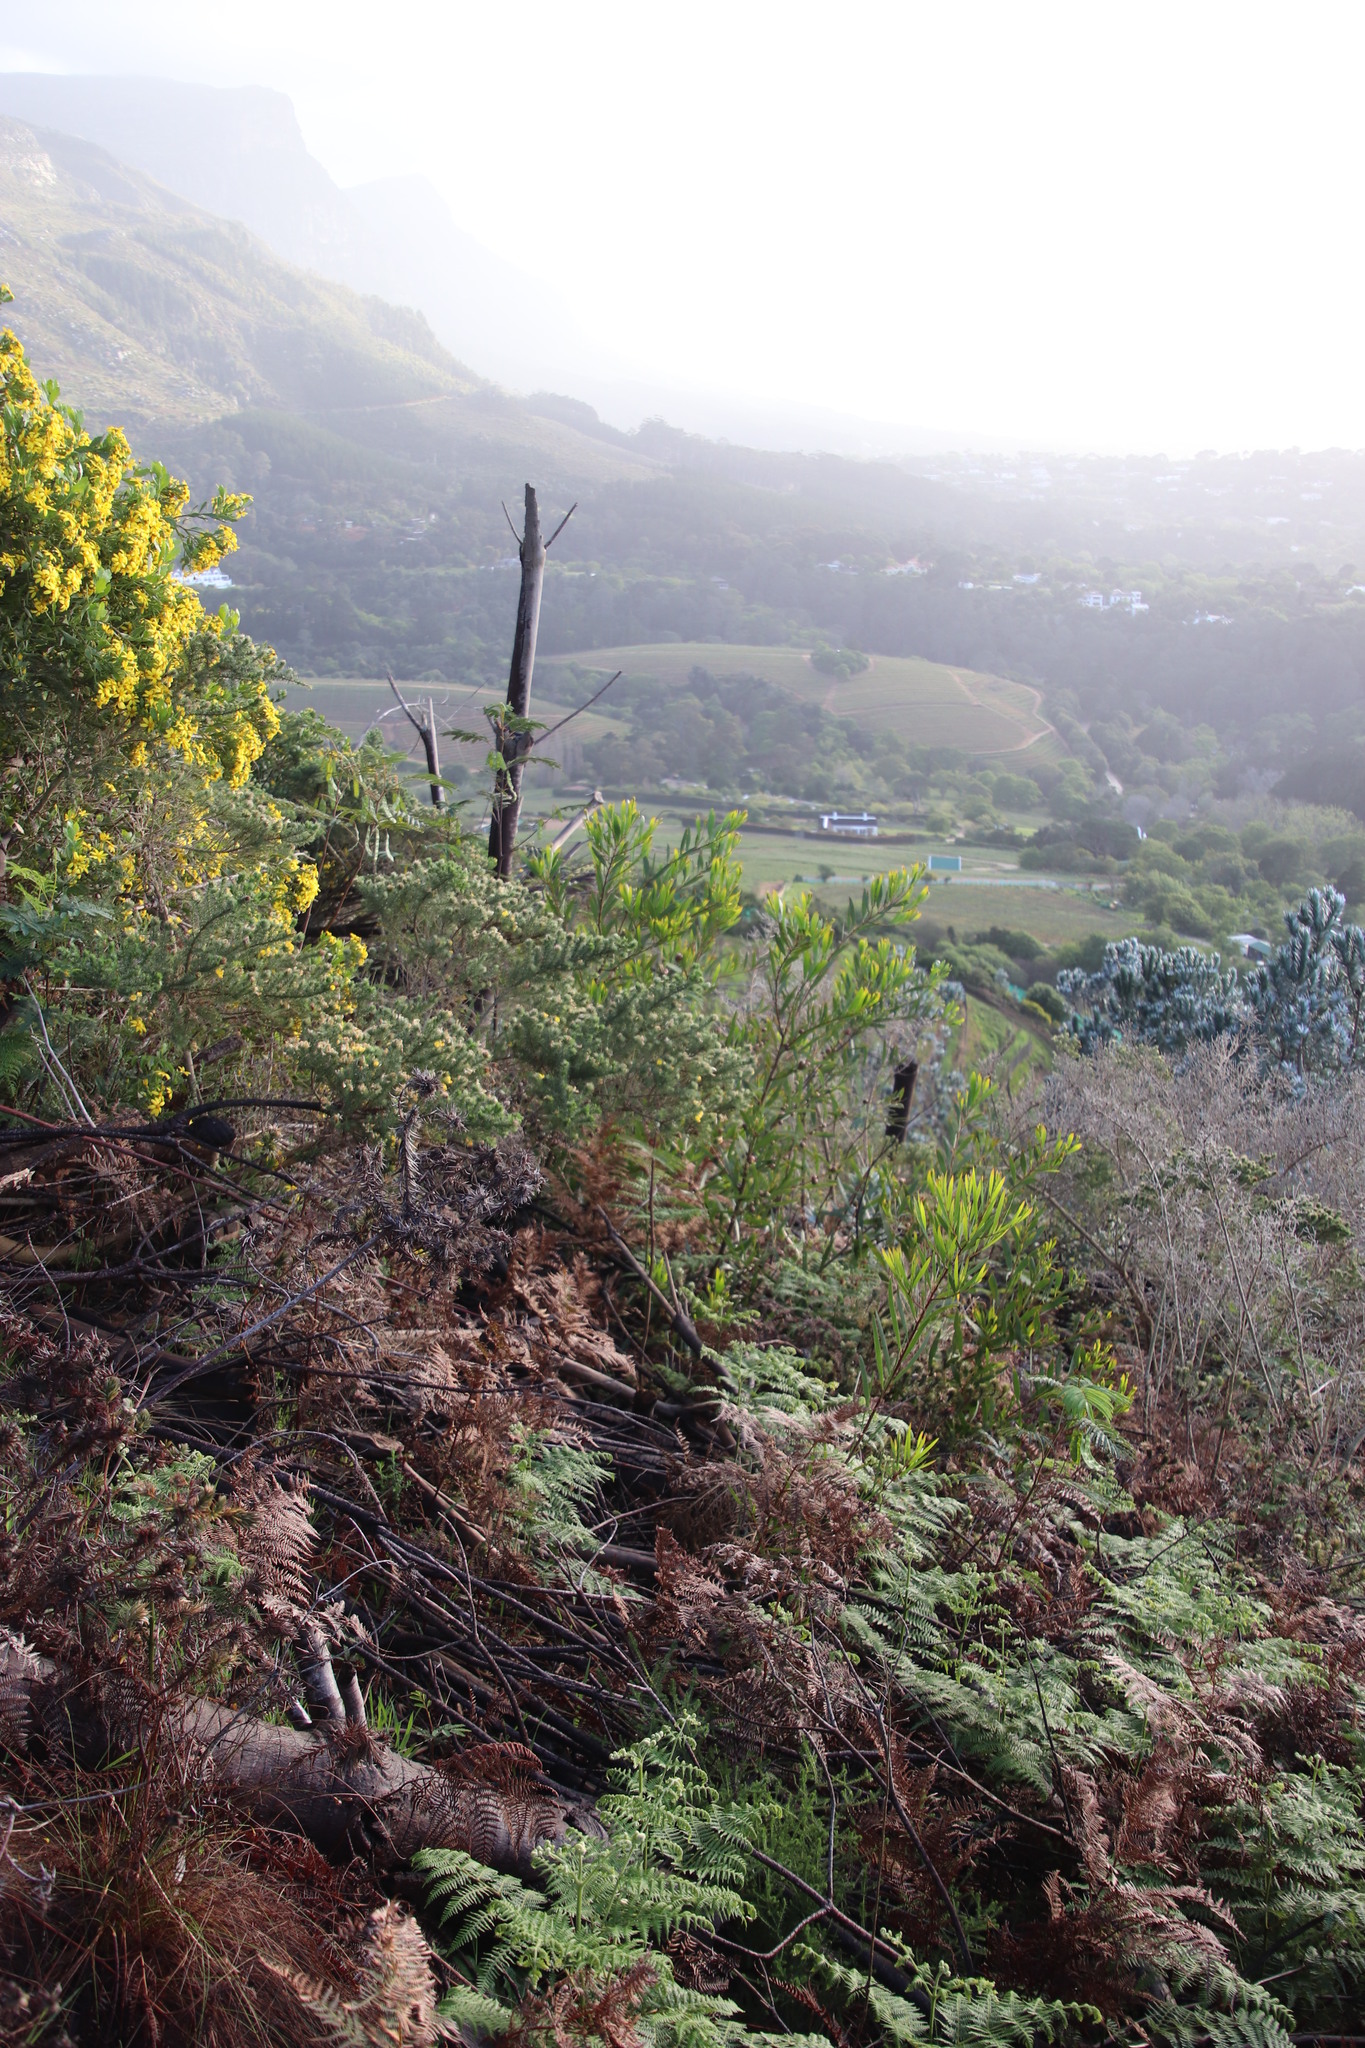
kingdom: Plantae
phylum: Tracheophyta
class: Magnoliopsida
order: Fabales
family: Fabaceae
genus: Acacia
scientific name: Acacia longifolia
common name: Sydney golden wattle
